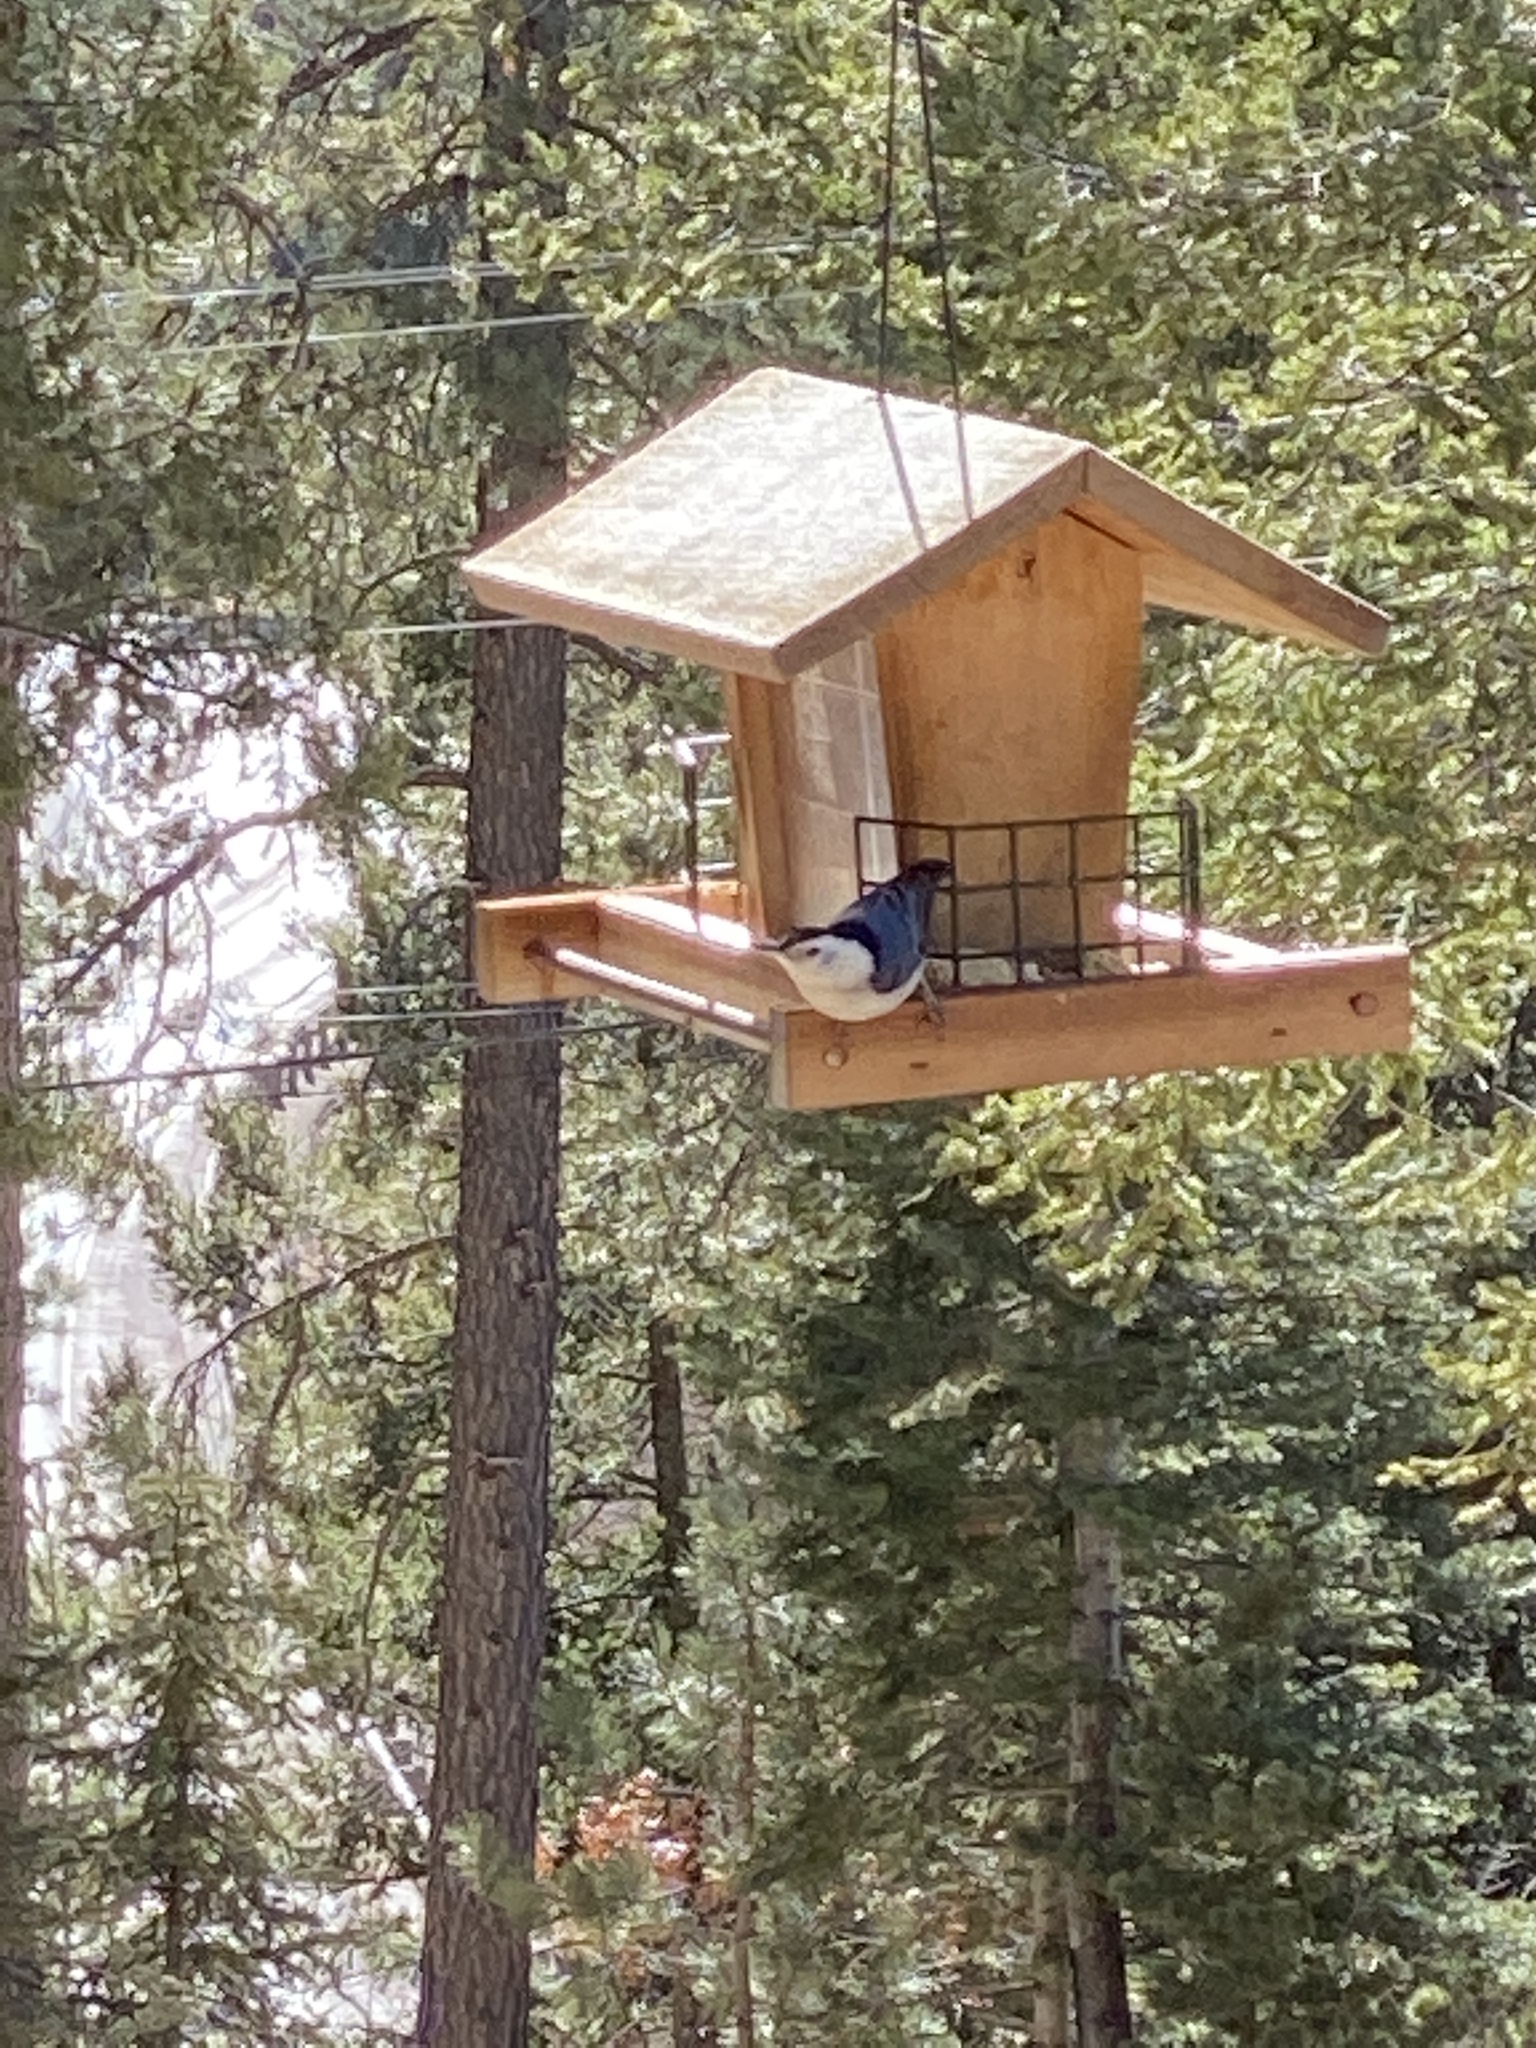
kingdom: Animalia
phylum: Chordata
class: Aves
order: Passeriformes
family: Sittidae
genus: Sitta
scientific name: Sitta carolinensis
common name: White-breasted nuthatch
